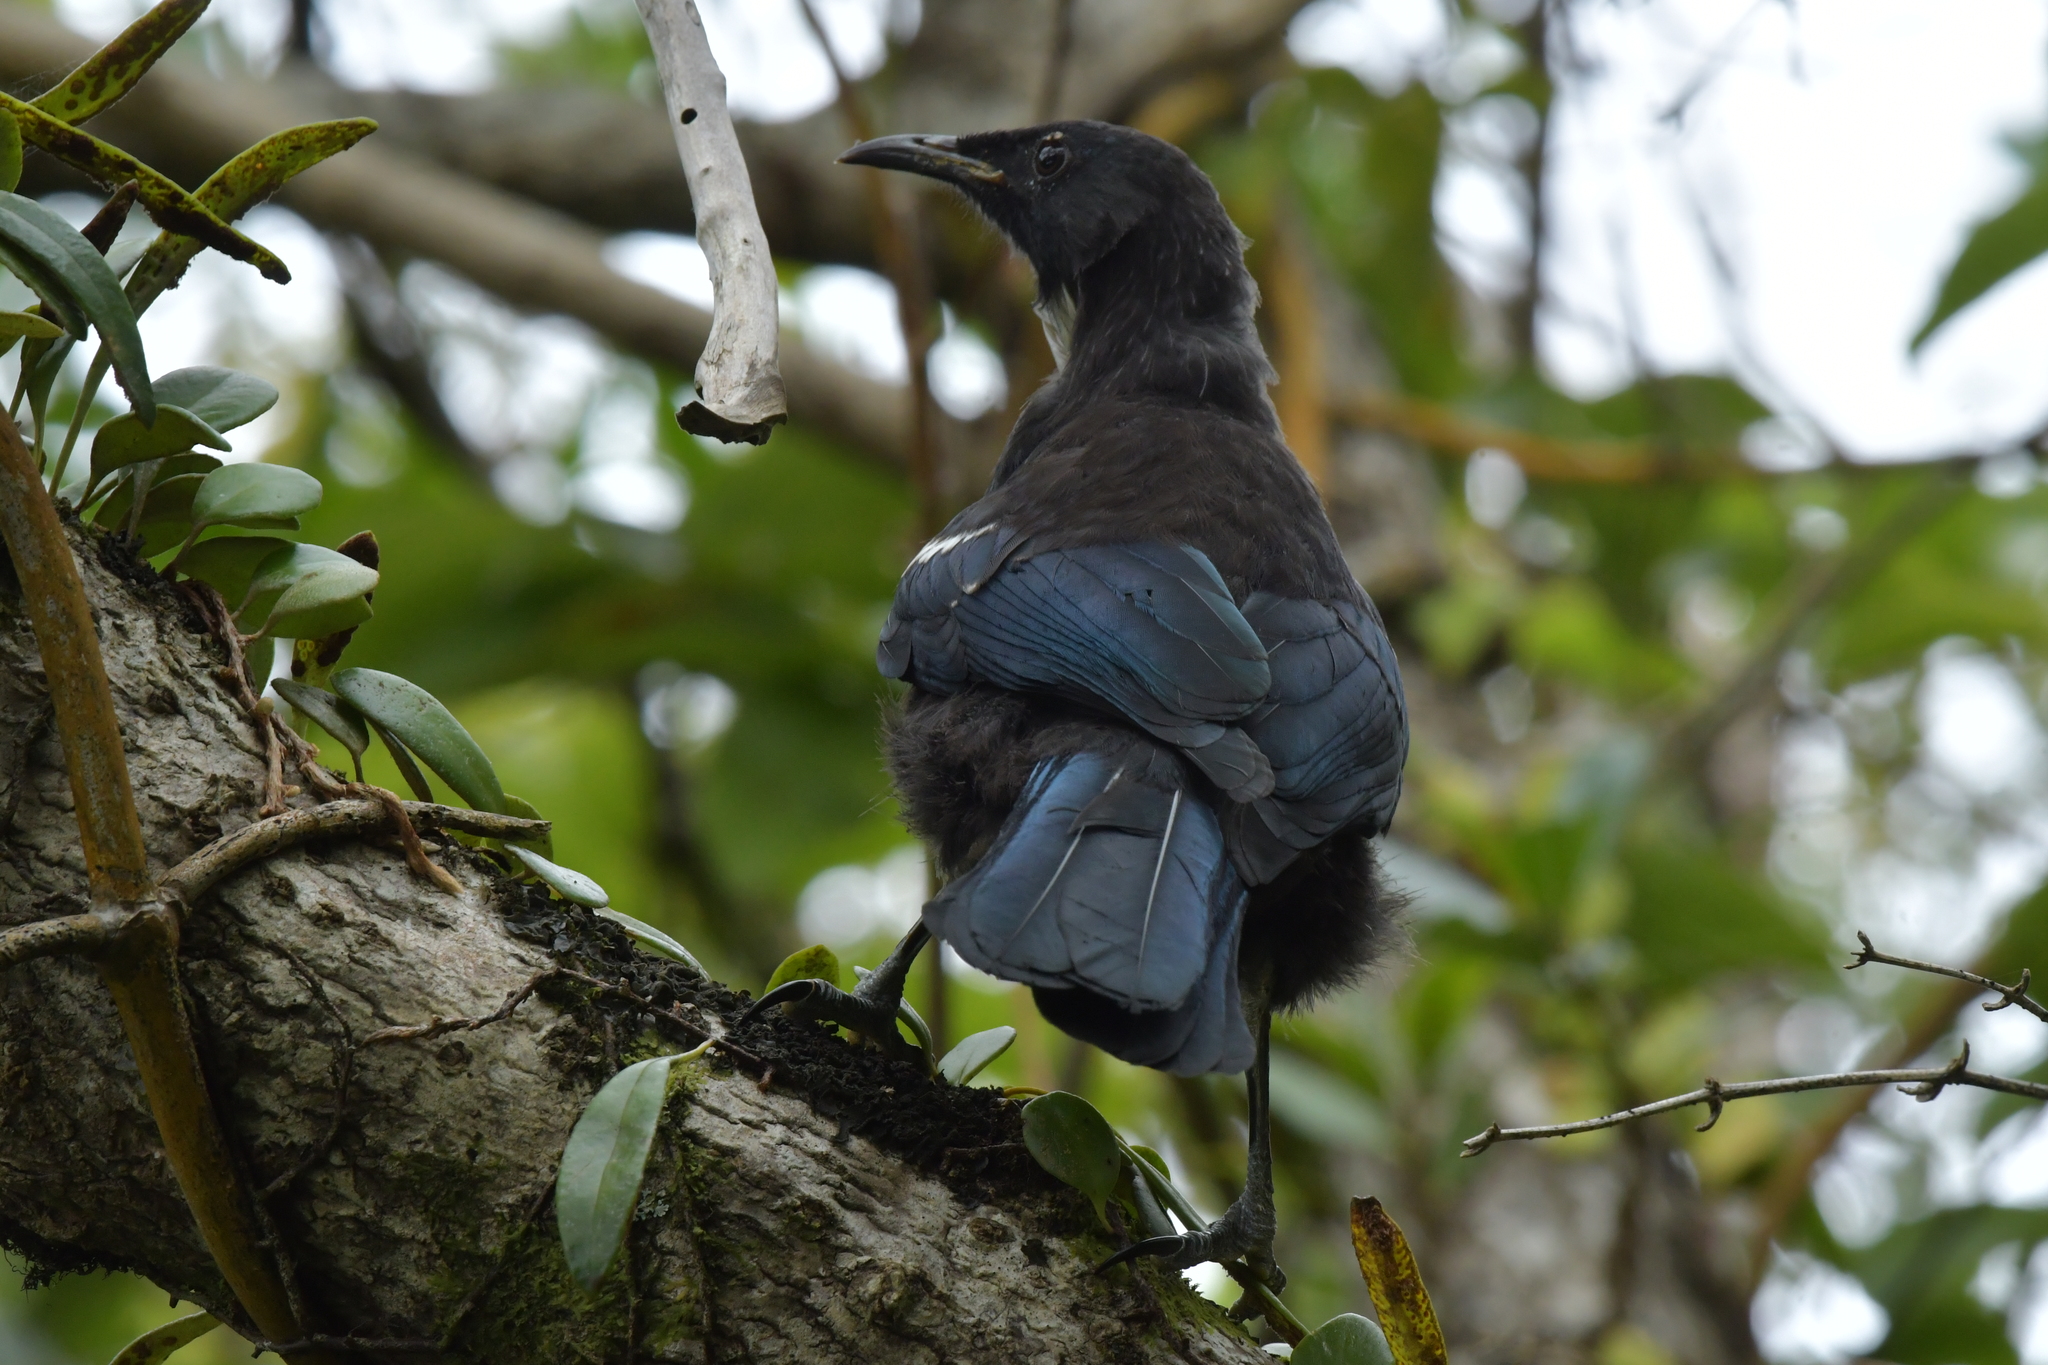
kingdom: Animalia
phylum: Chordata
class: Aves
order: Passeriformes
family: Meliphagidae
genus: Prosthemadera
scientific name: Prosthemadera novaeseelandiae
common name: Tui
